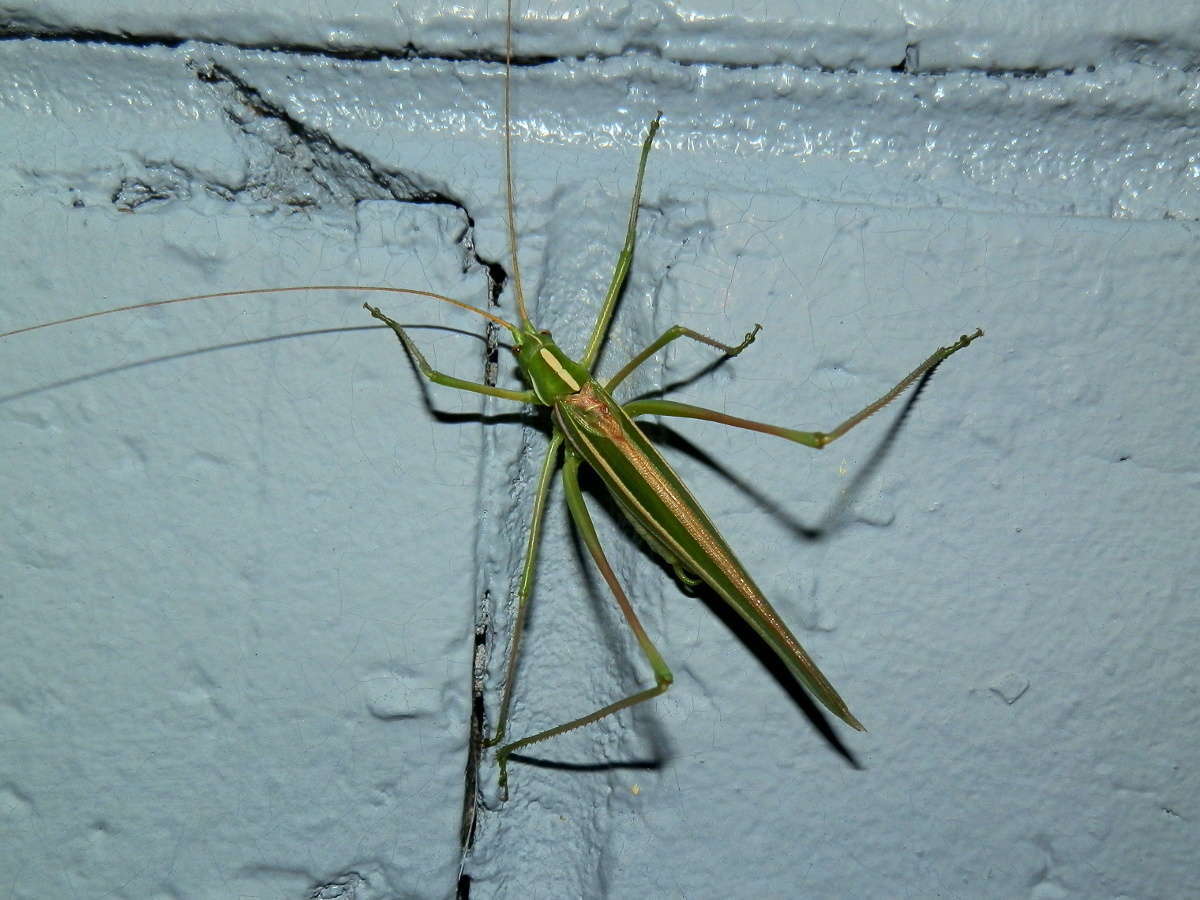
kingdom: Animalia
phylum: Arthropoda
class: Insecta
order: Orthoptera
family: Tettigoniidae
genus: Tinzeda
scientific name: Tinzeda albosignata
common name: Stout tinzeda
